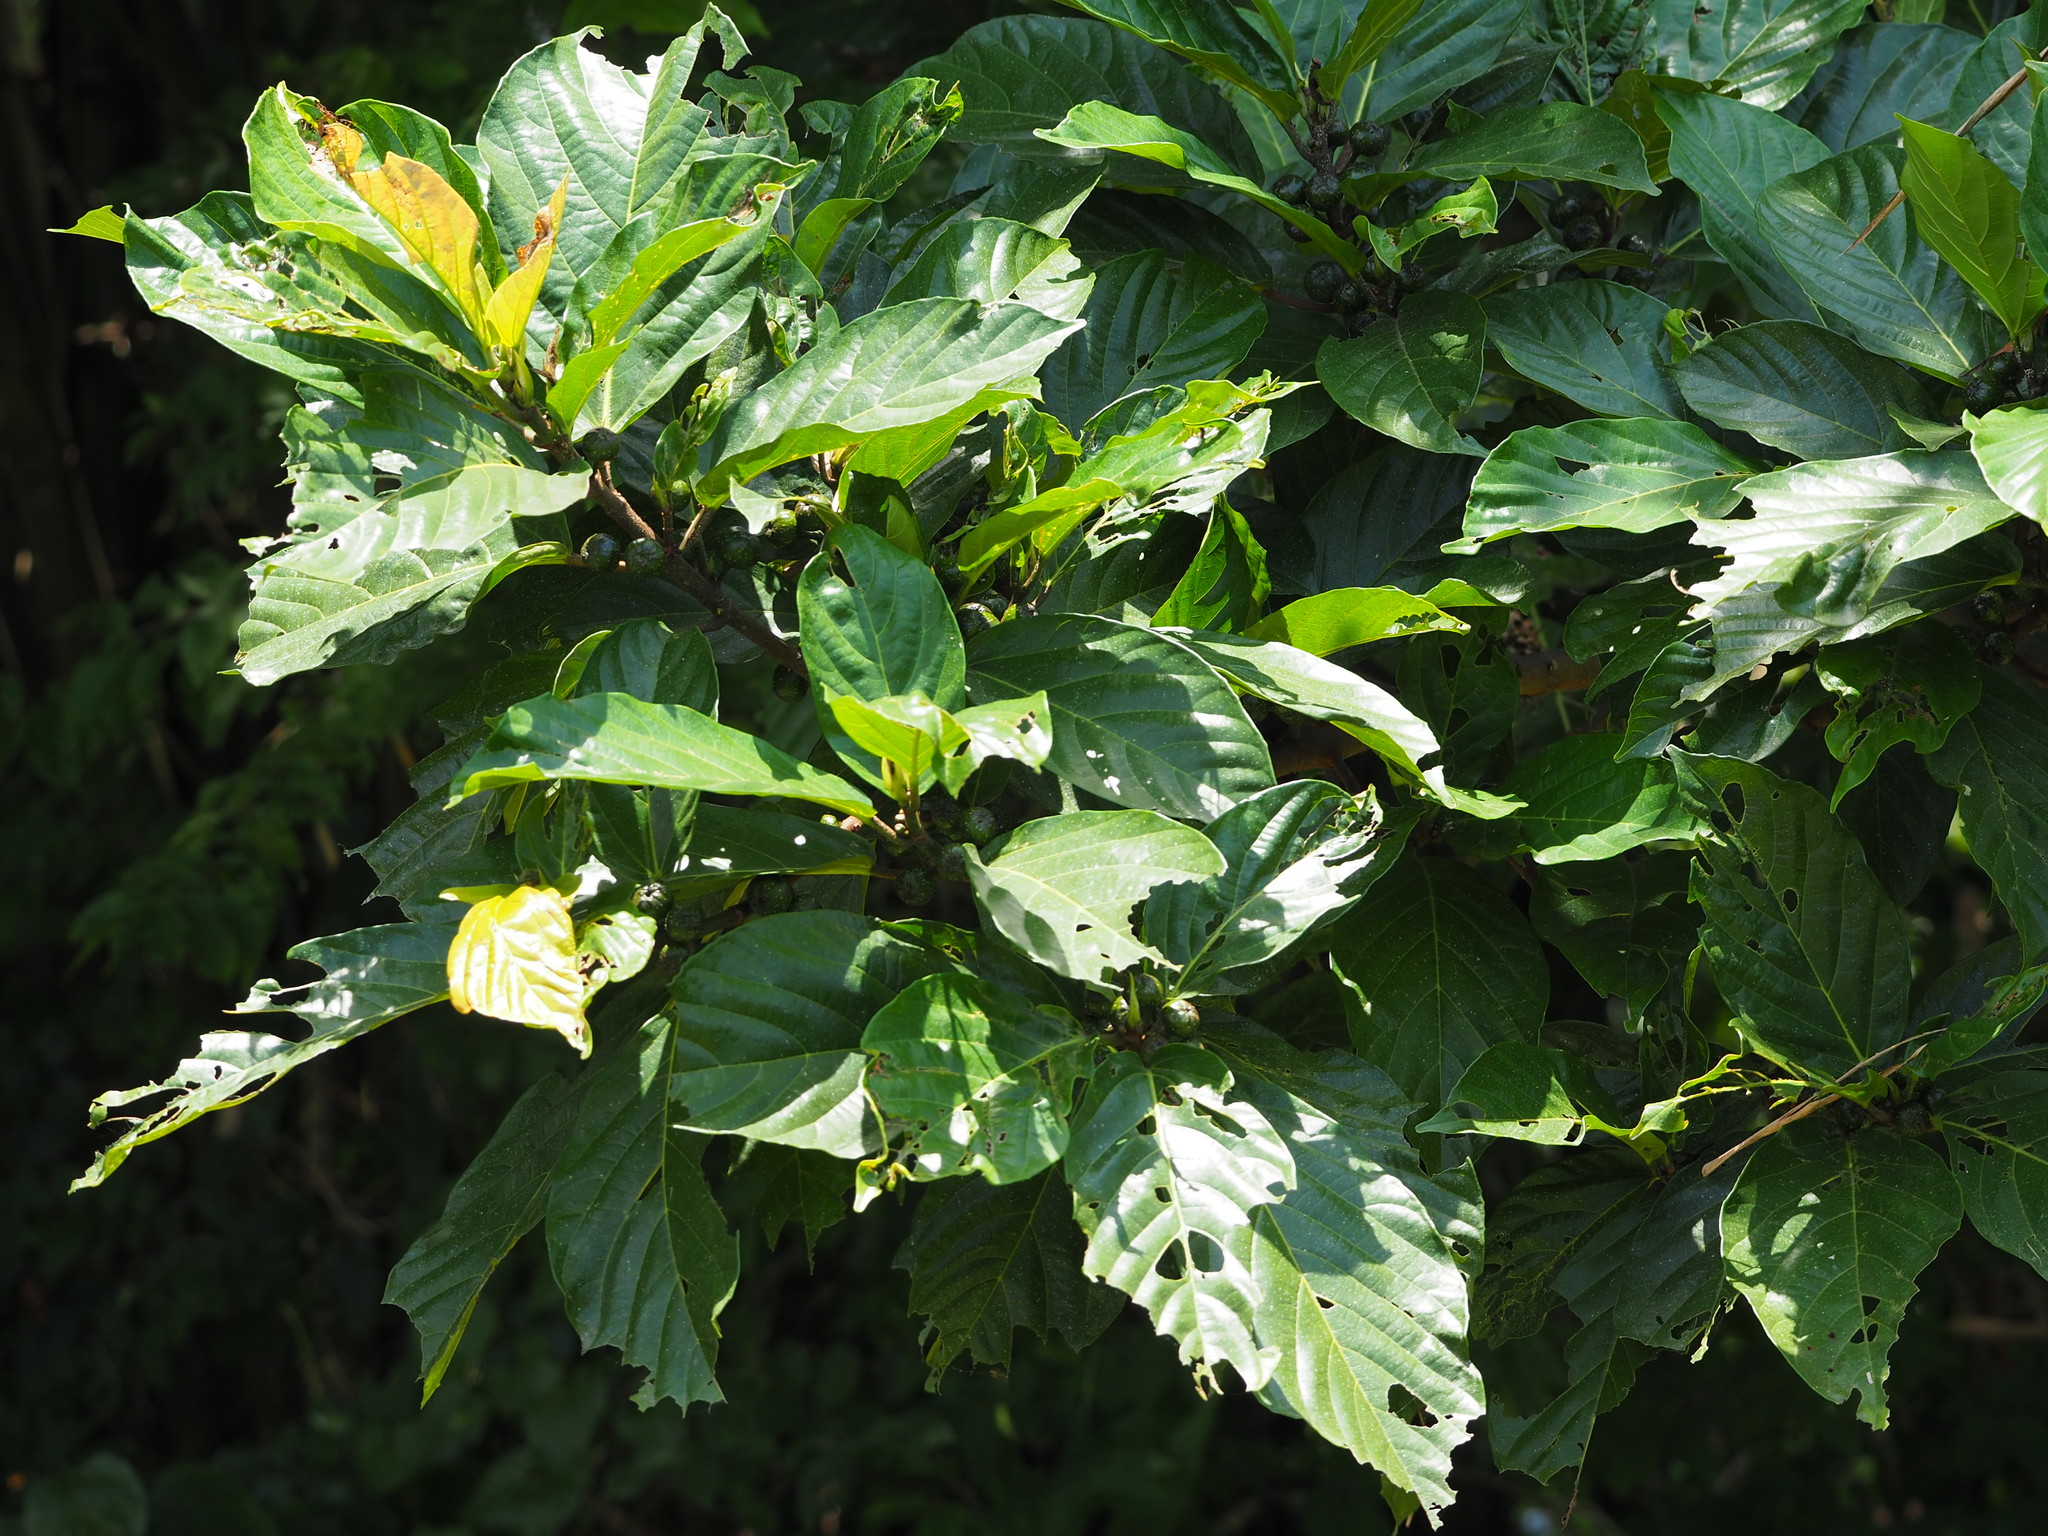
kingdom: Plantae
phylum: Tracheophyta
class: Magnoliopsida
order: Rosales
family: Moraceae
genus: Ficus
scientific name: Ficus benguetensis
